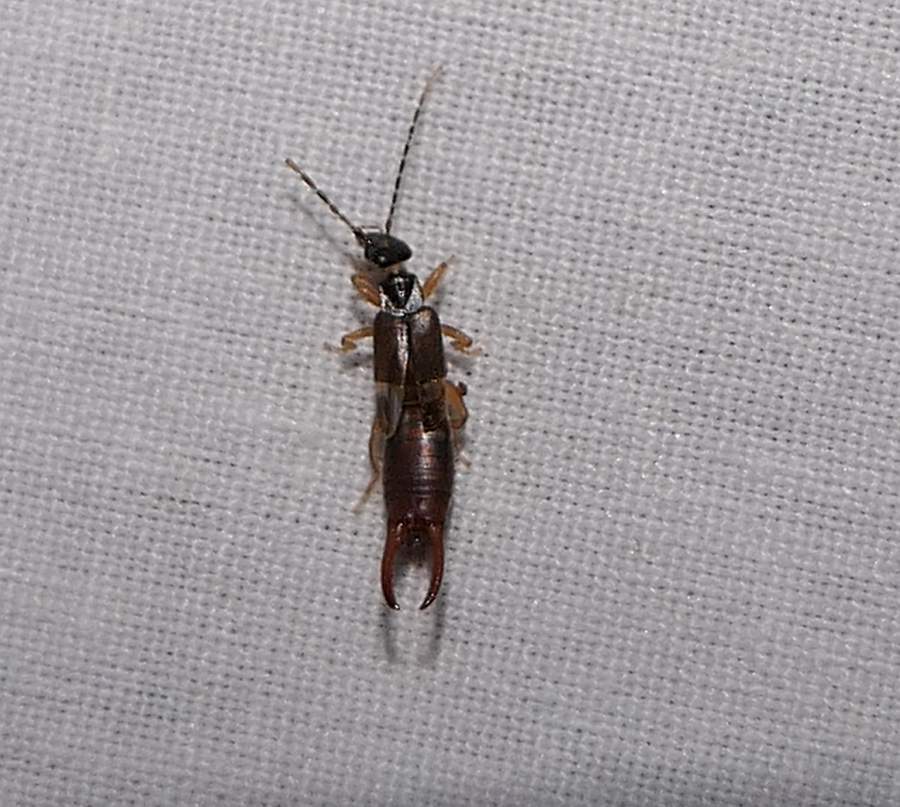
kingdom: Animalia
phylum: Arthropoda
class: Insecta
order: Dermaptera
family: Spongiphoridae
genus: Labia
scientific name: Labia minor
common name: Lesser earwig
